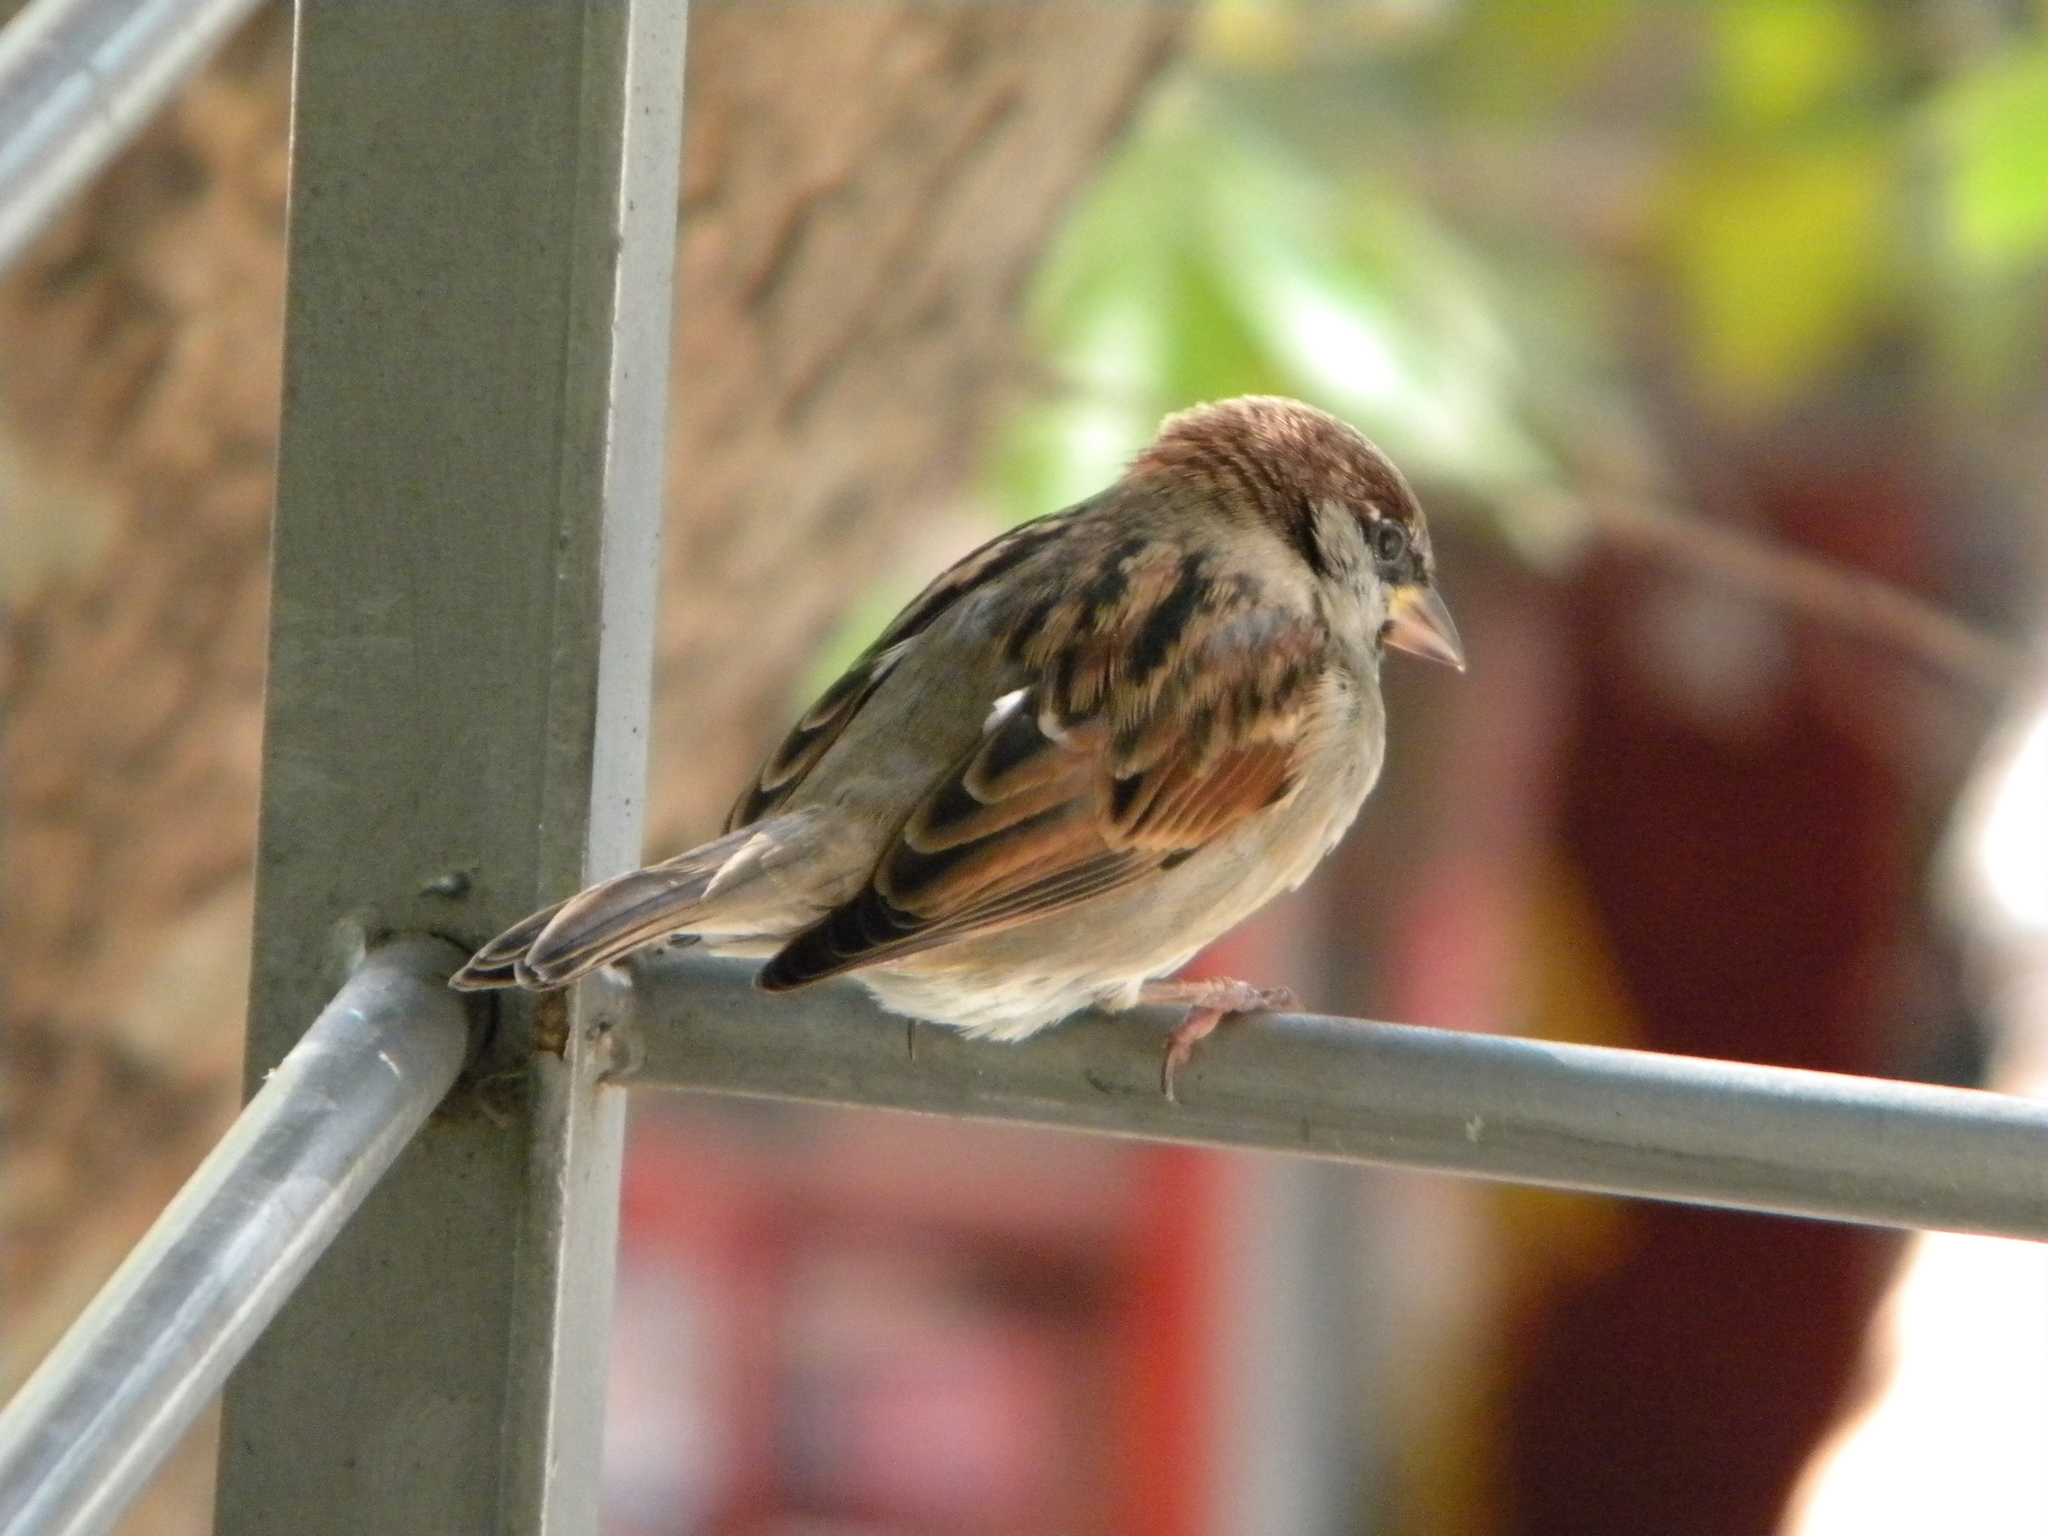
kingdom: Animalia
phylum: Chordata
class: Aves
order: Passeriformes
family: Passeridae
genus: Passer
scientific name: Passer domesticus
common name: House sparrow
